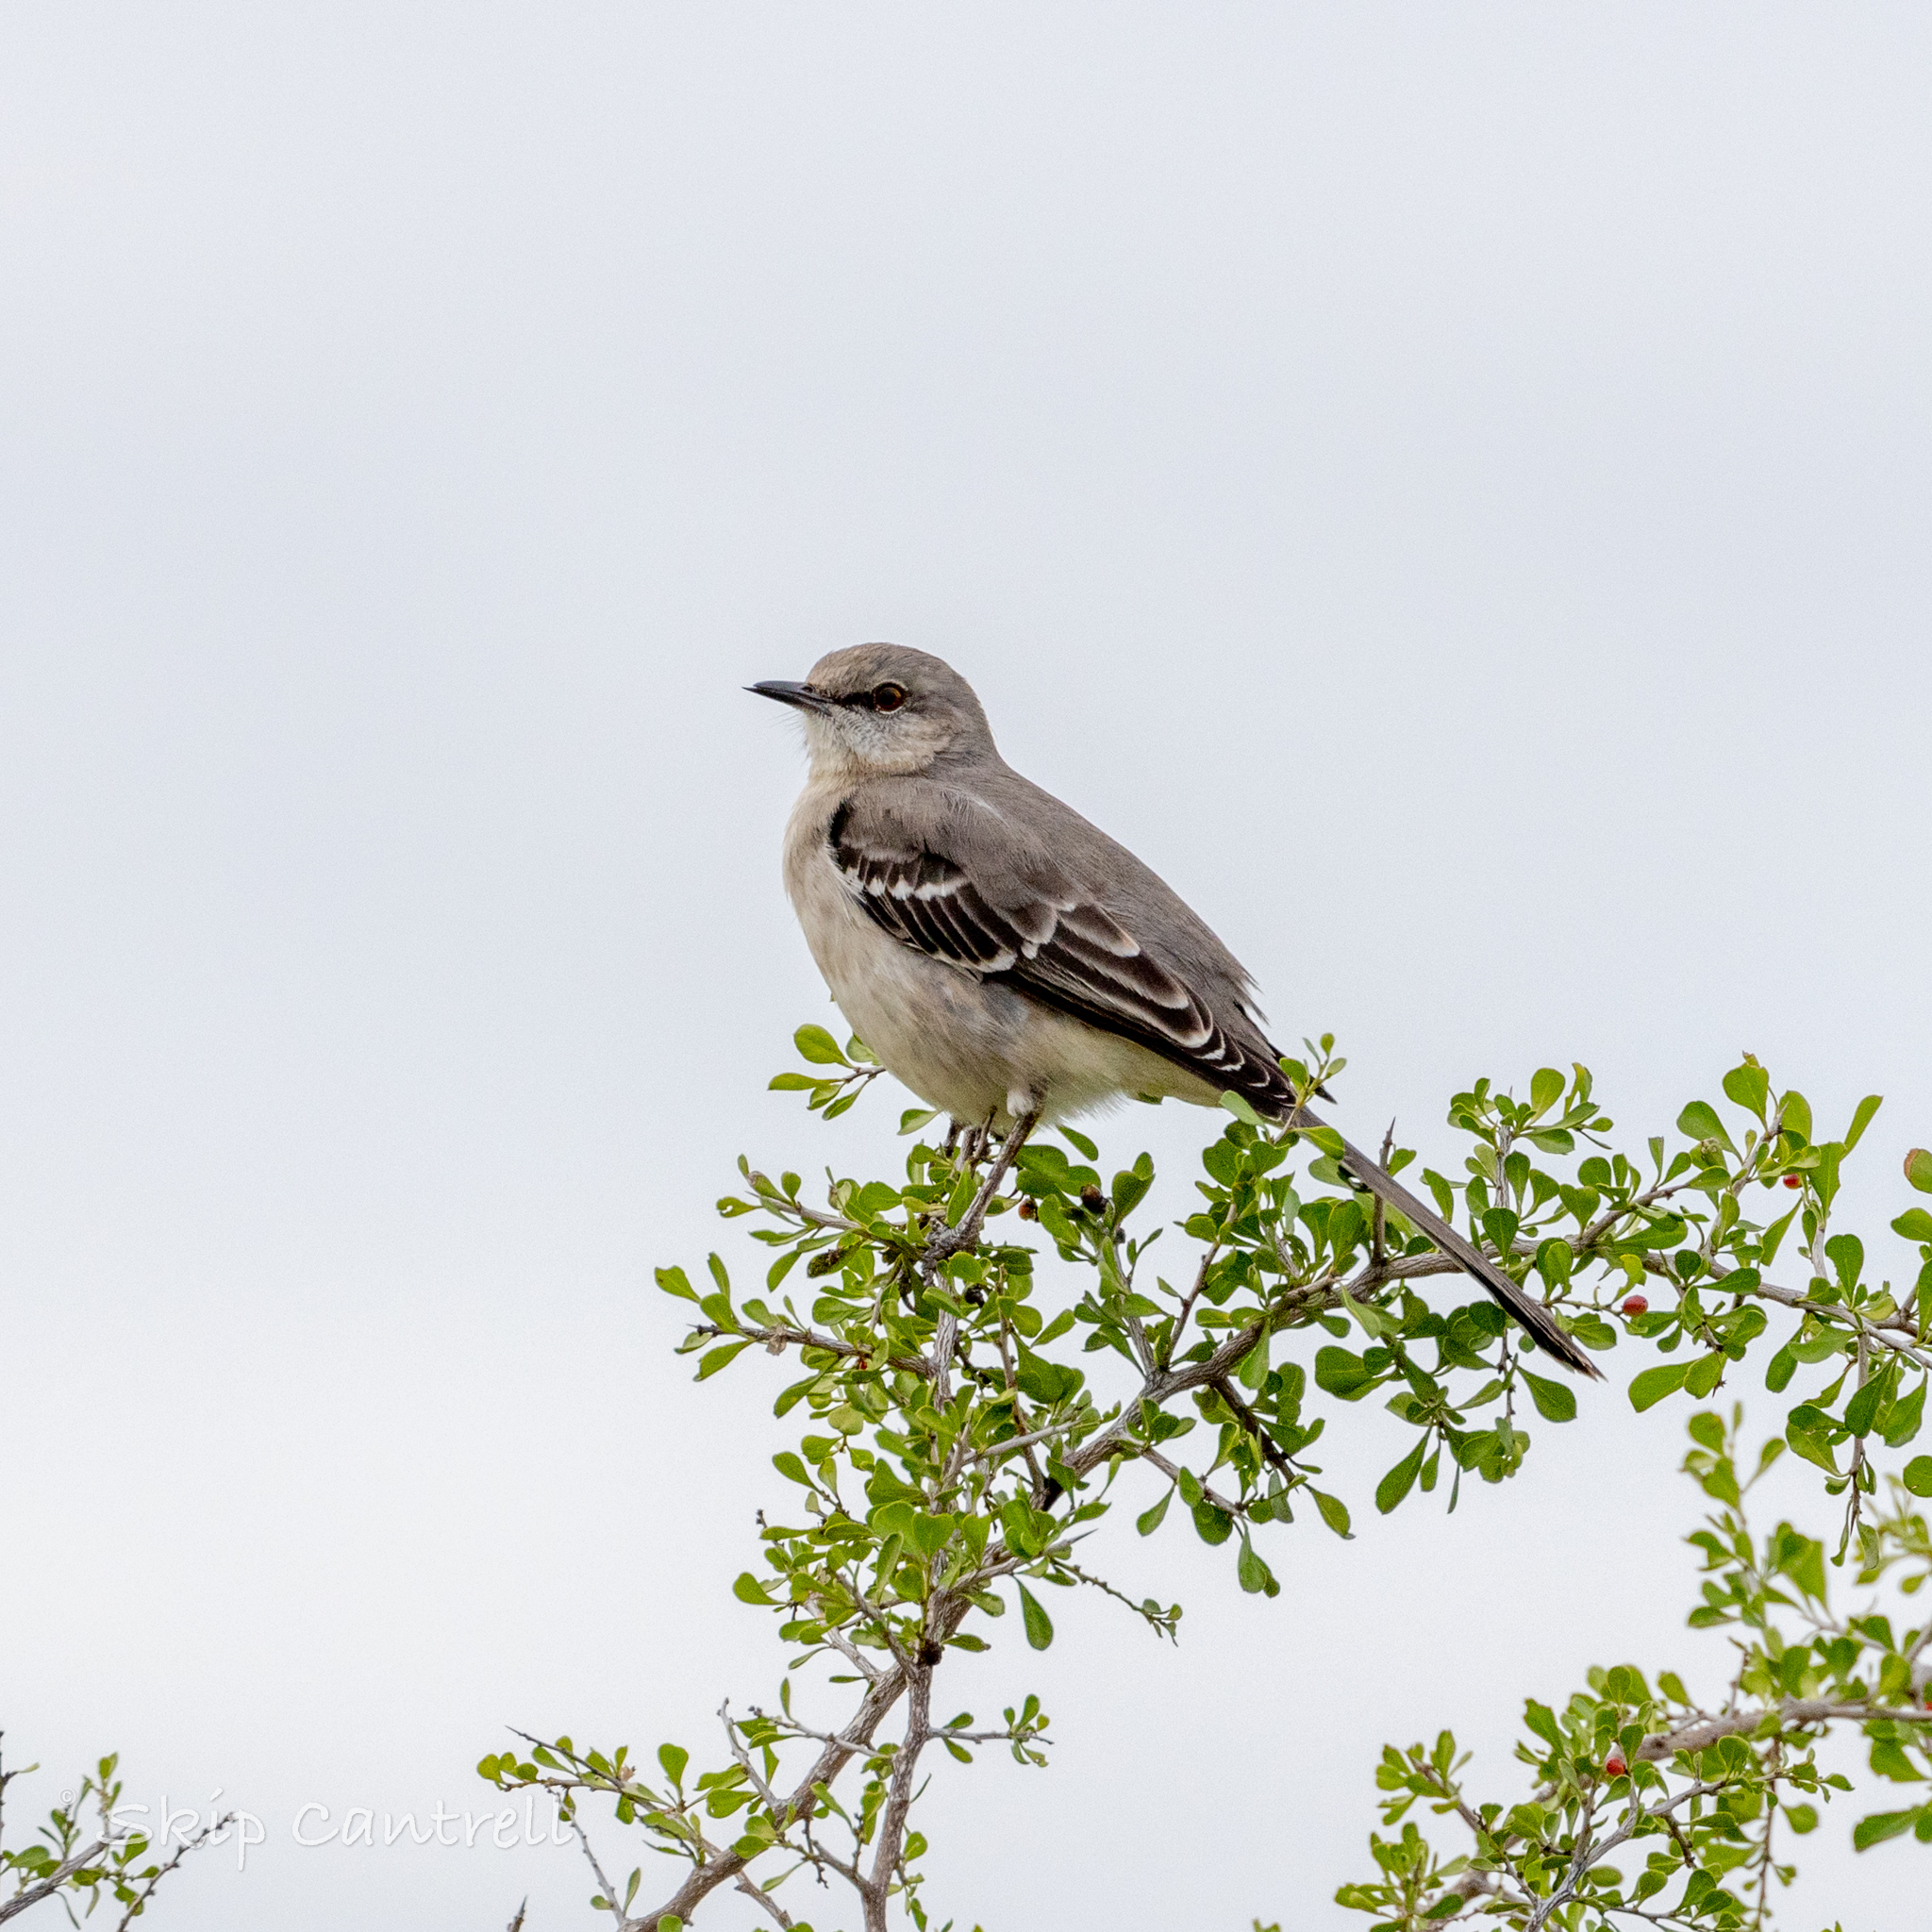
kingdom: Animalia
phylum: Chordata
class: Aves
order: Passeriformes
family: Mimidae
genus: Mimus
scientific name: Mimus polyglottos
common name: Northern mockingbird
